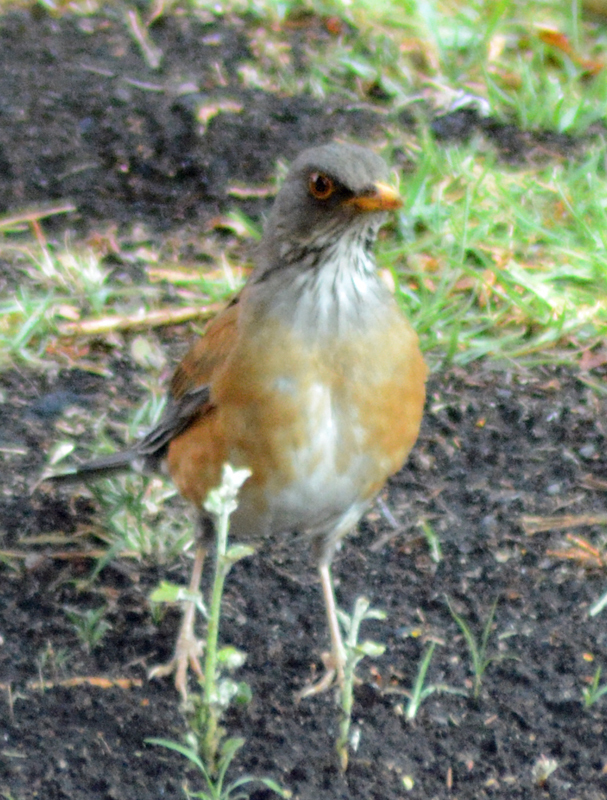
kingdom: Animalia
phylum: Chordata
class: Aves
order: Passeriformes
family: Turdidae
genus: Turdus
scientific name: Turdus rufopalliatus
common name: Rufous-backed robin
